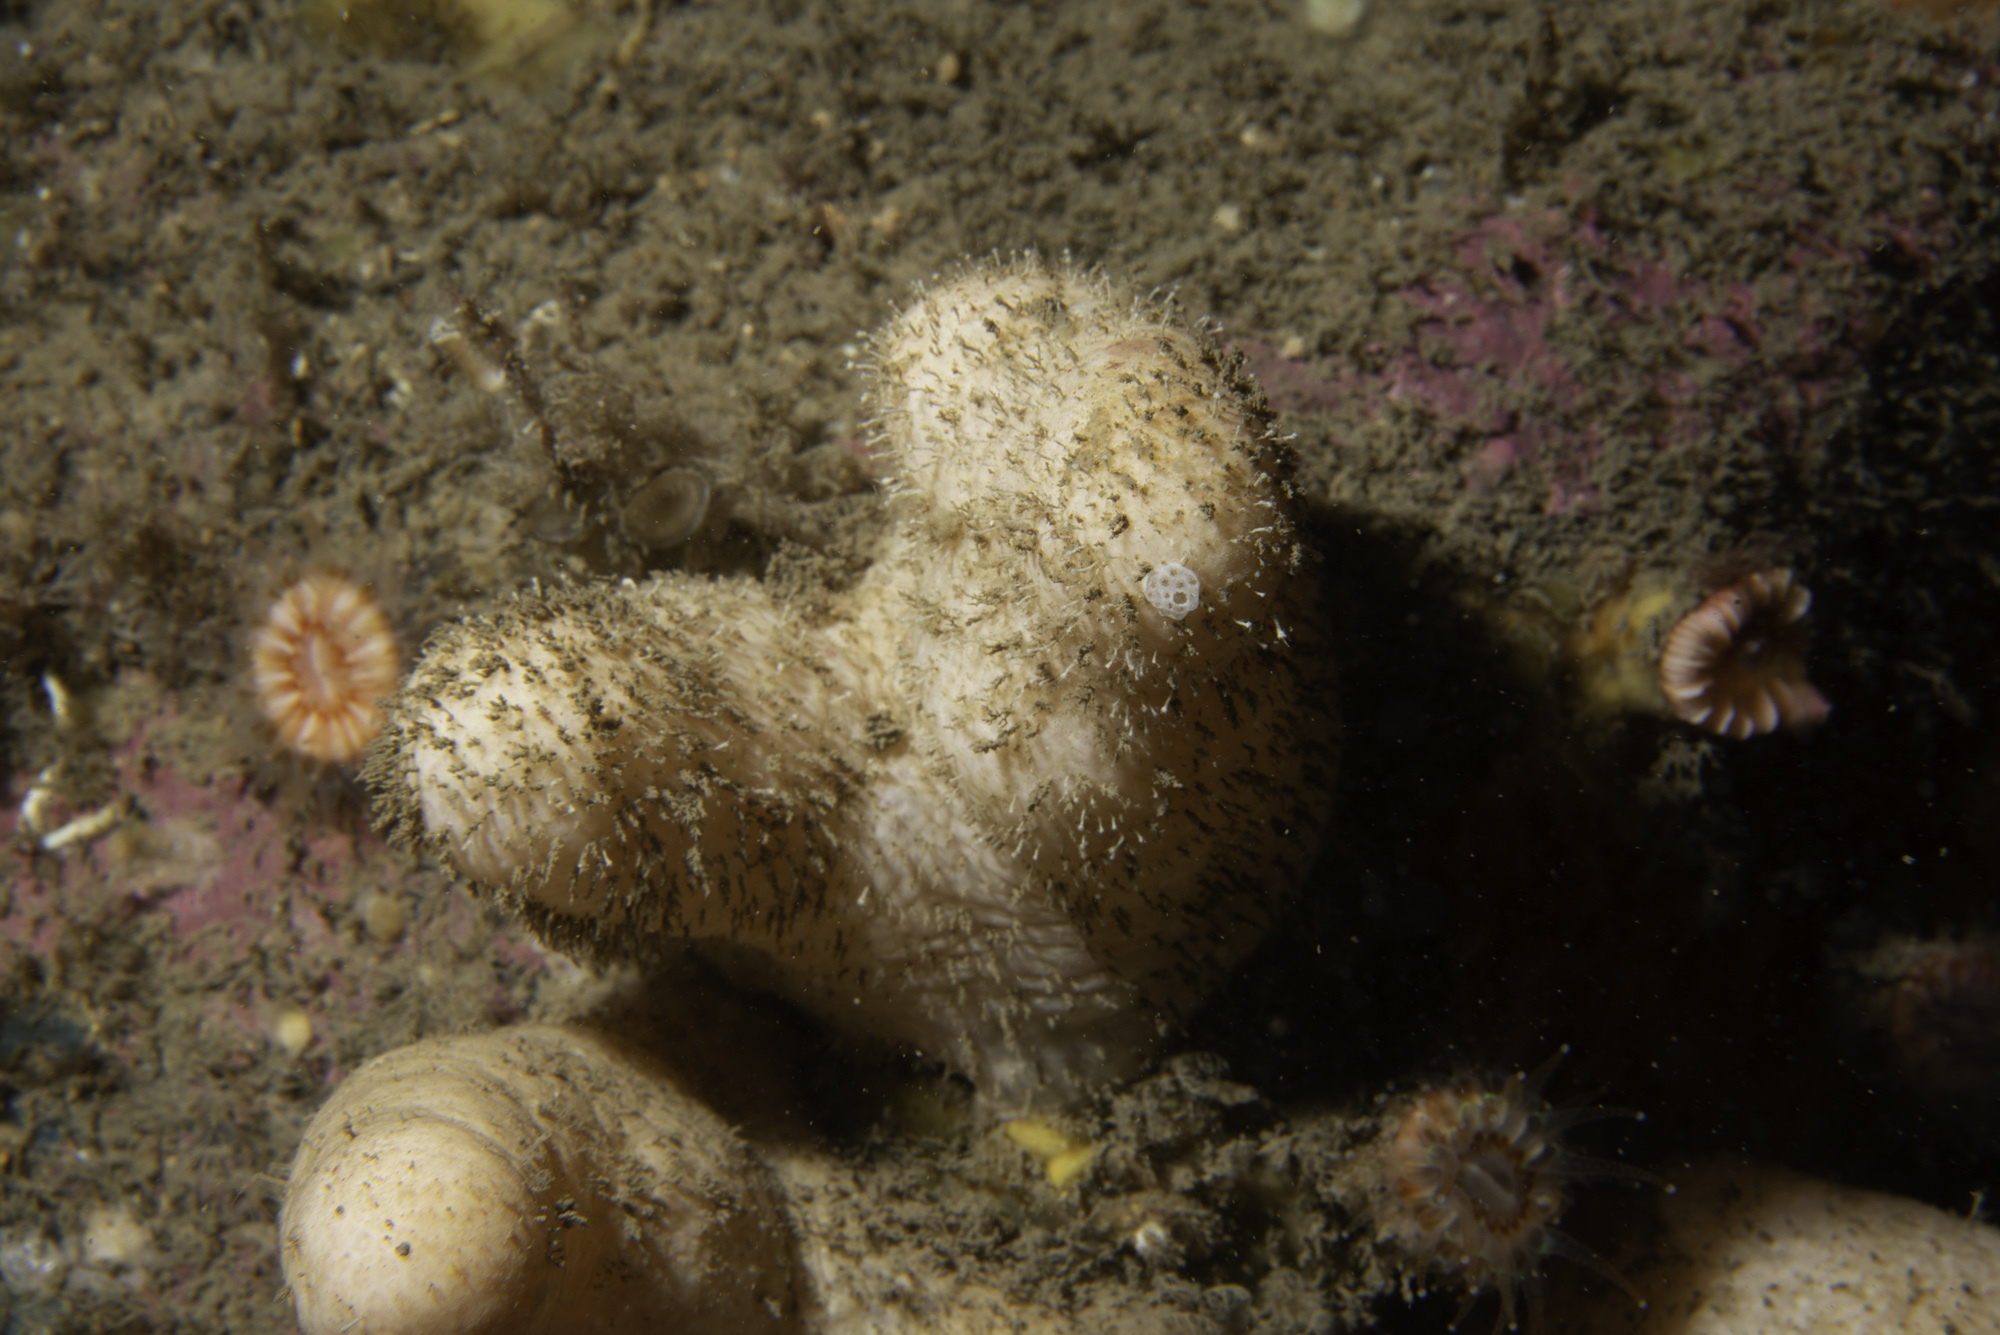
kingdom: Animalia
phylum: Cnidaria
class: Anthozoa
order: Malacalcyonacea
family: Alcyoniidae
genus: Alcyonium
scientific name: Alcyonium digitatum
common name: Dead man's fingers
